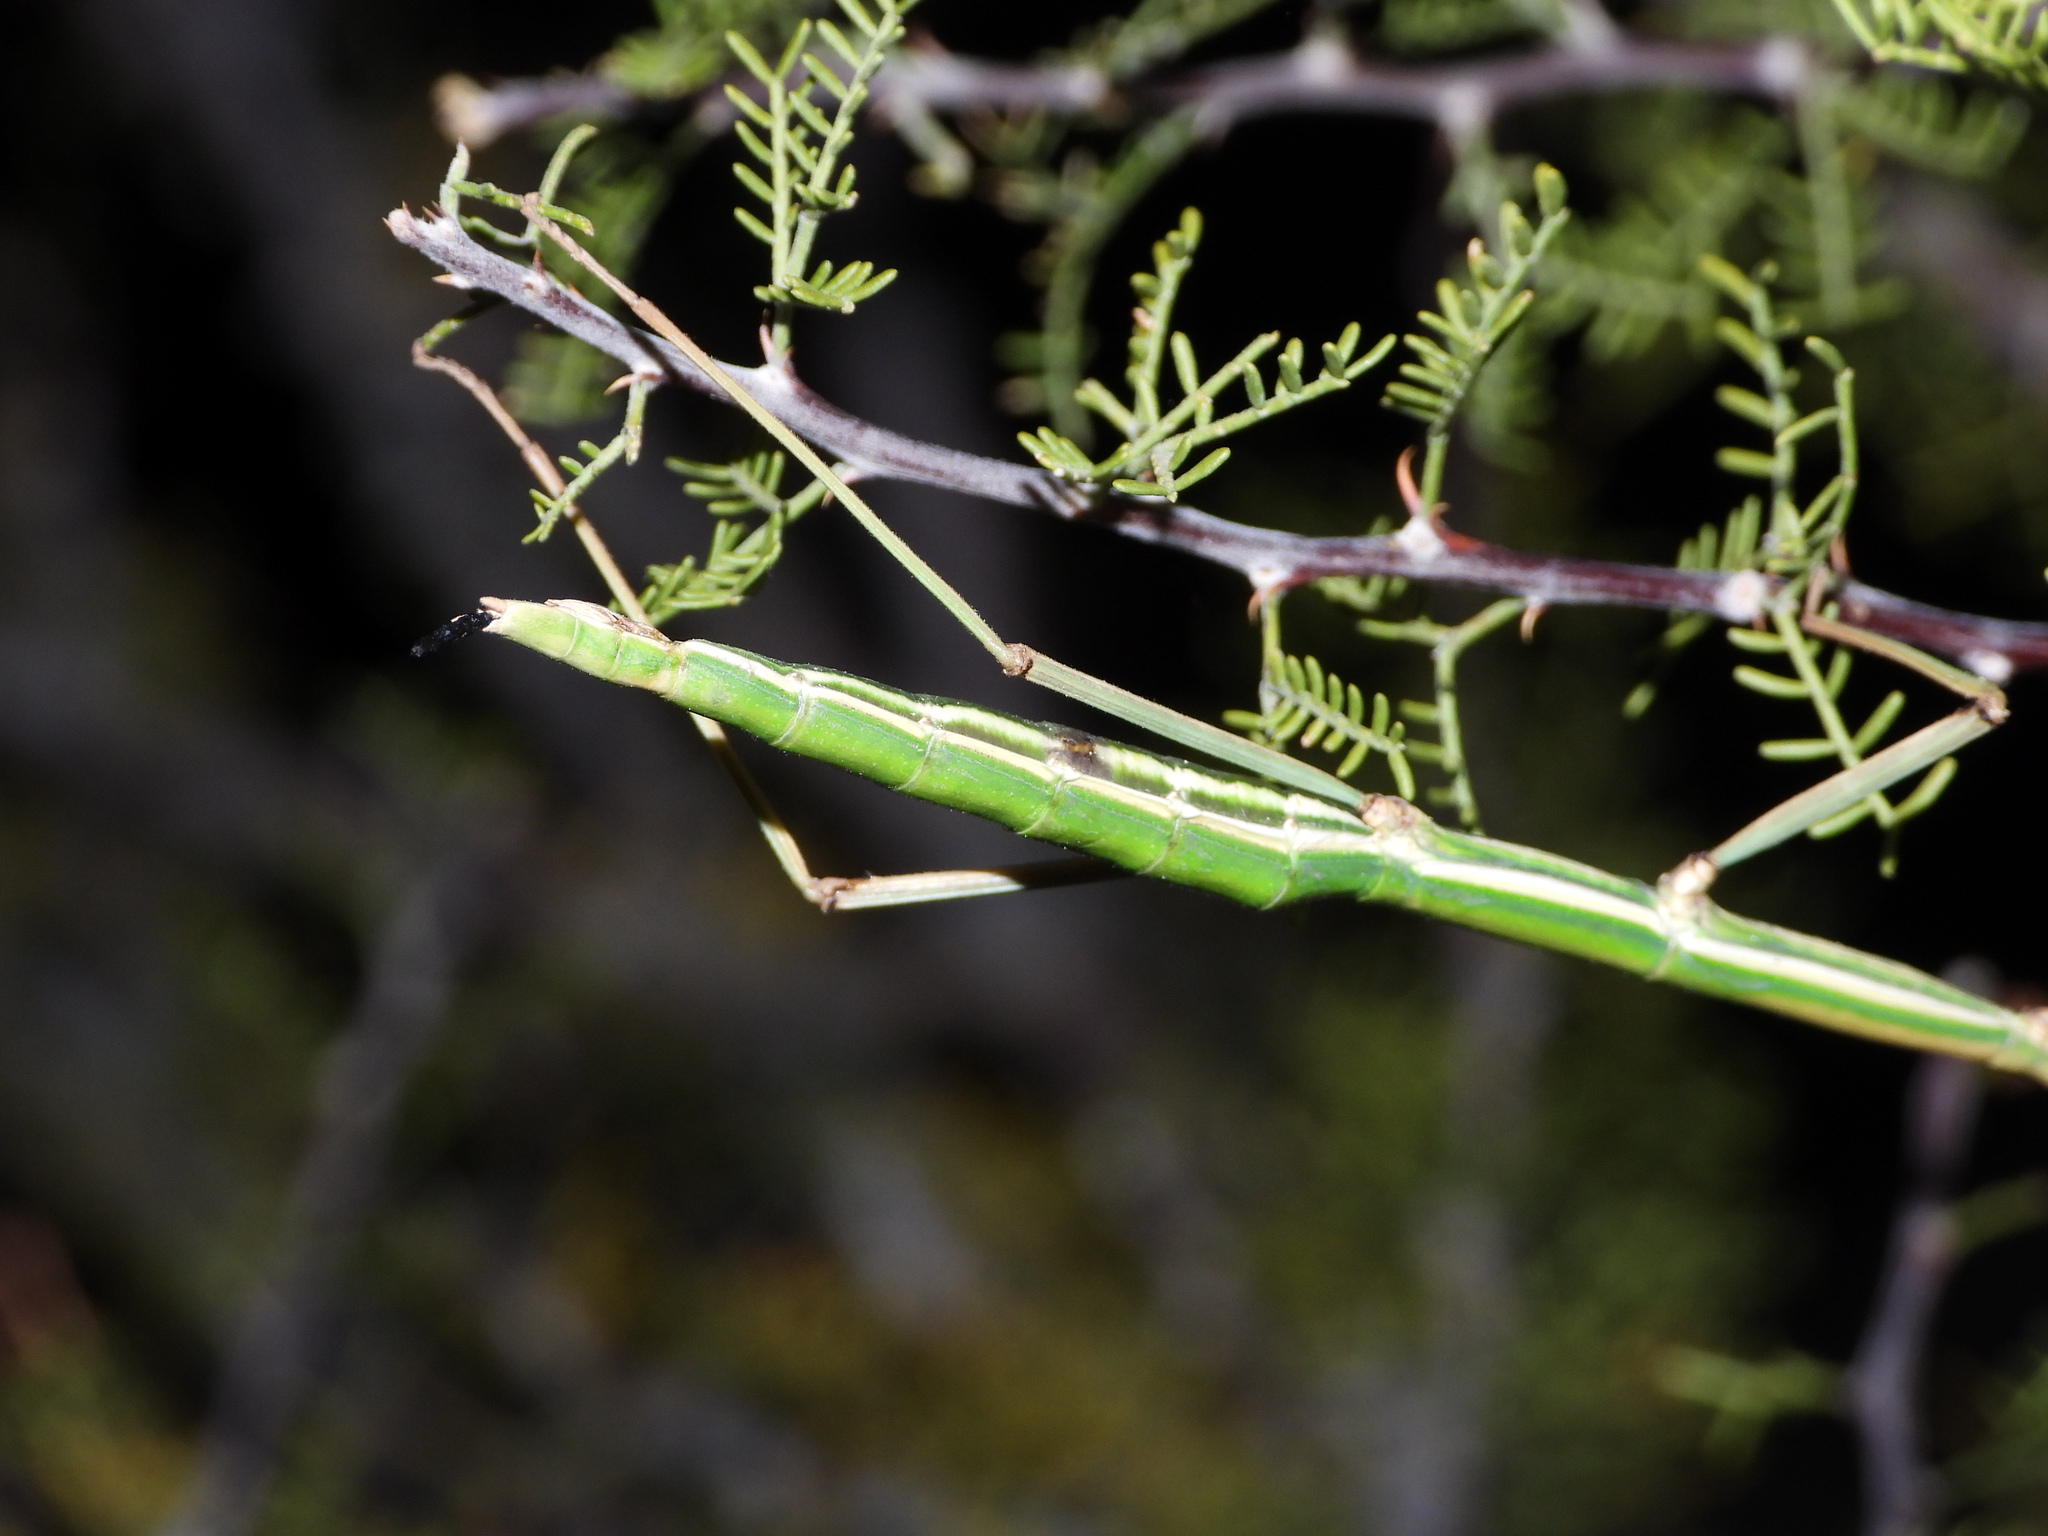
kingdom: Animalia
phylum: Arthropoda
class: Insecta
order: Phasmida
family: Diapheromeridae
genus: Diapheromera
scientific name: Diapheromera velii
